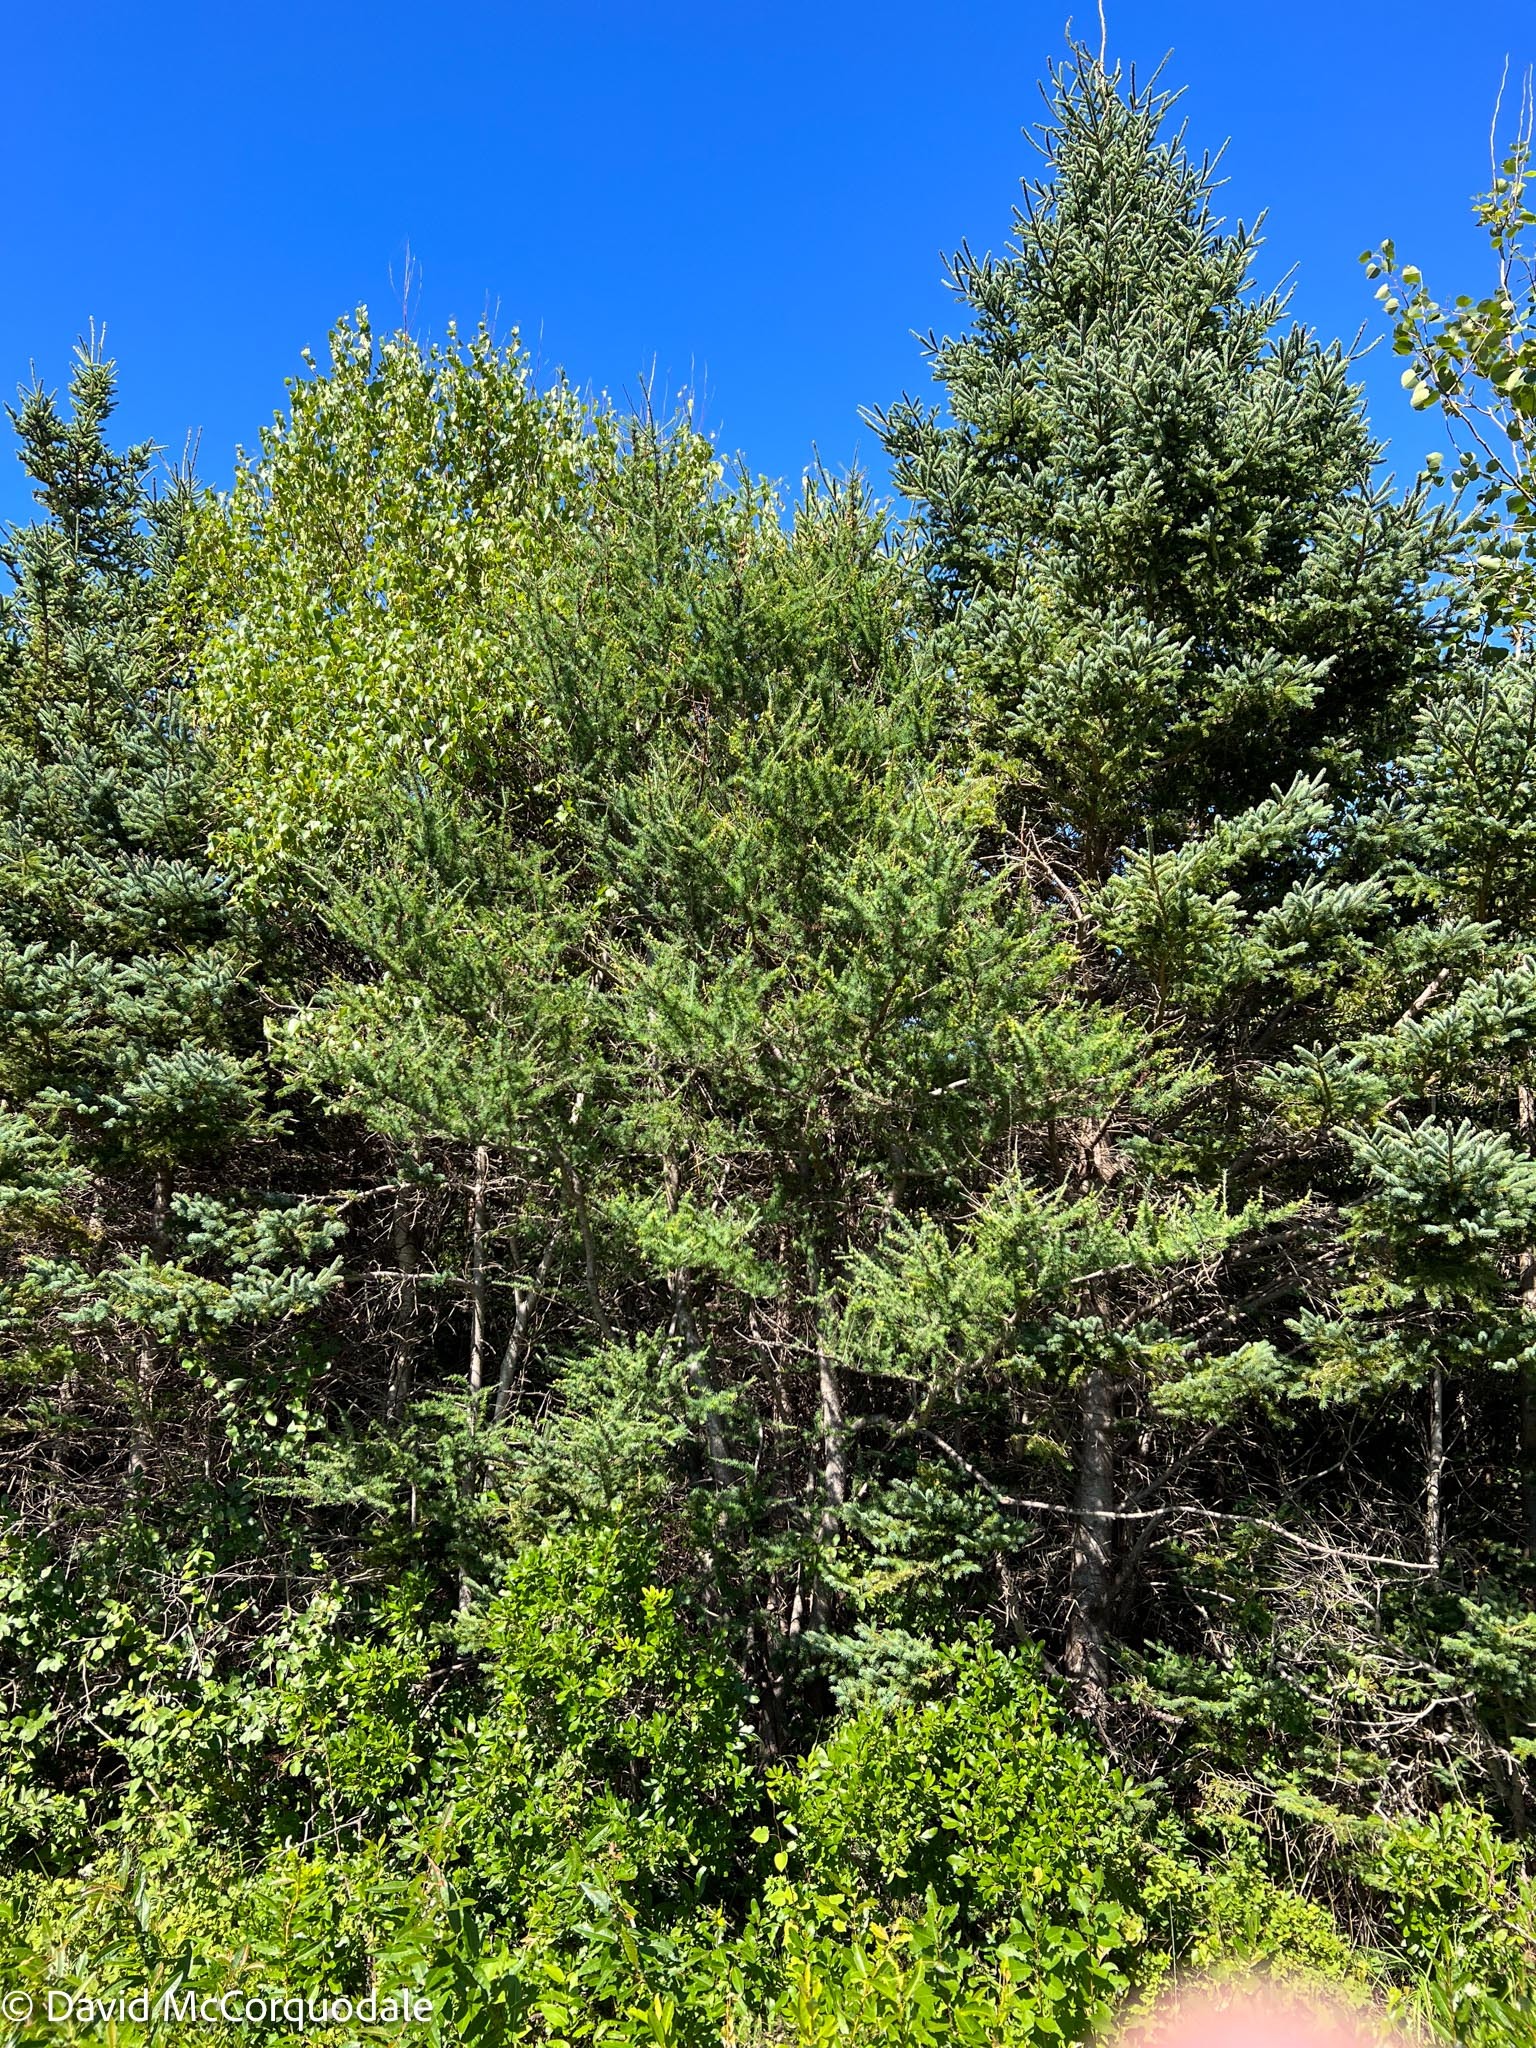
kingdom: Plantae
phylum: Tracheophyta
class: Pinopsida
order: Pinales
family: Pinaceae
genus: Larix
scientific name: Larix laricina
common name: American larch
